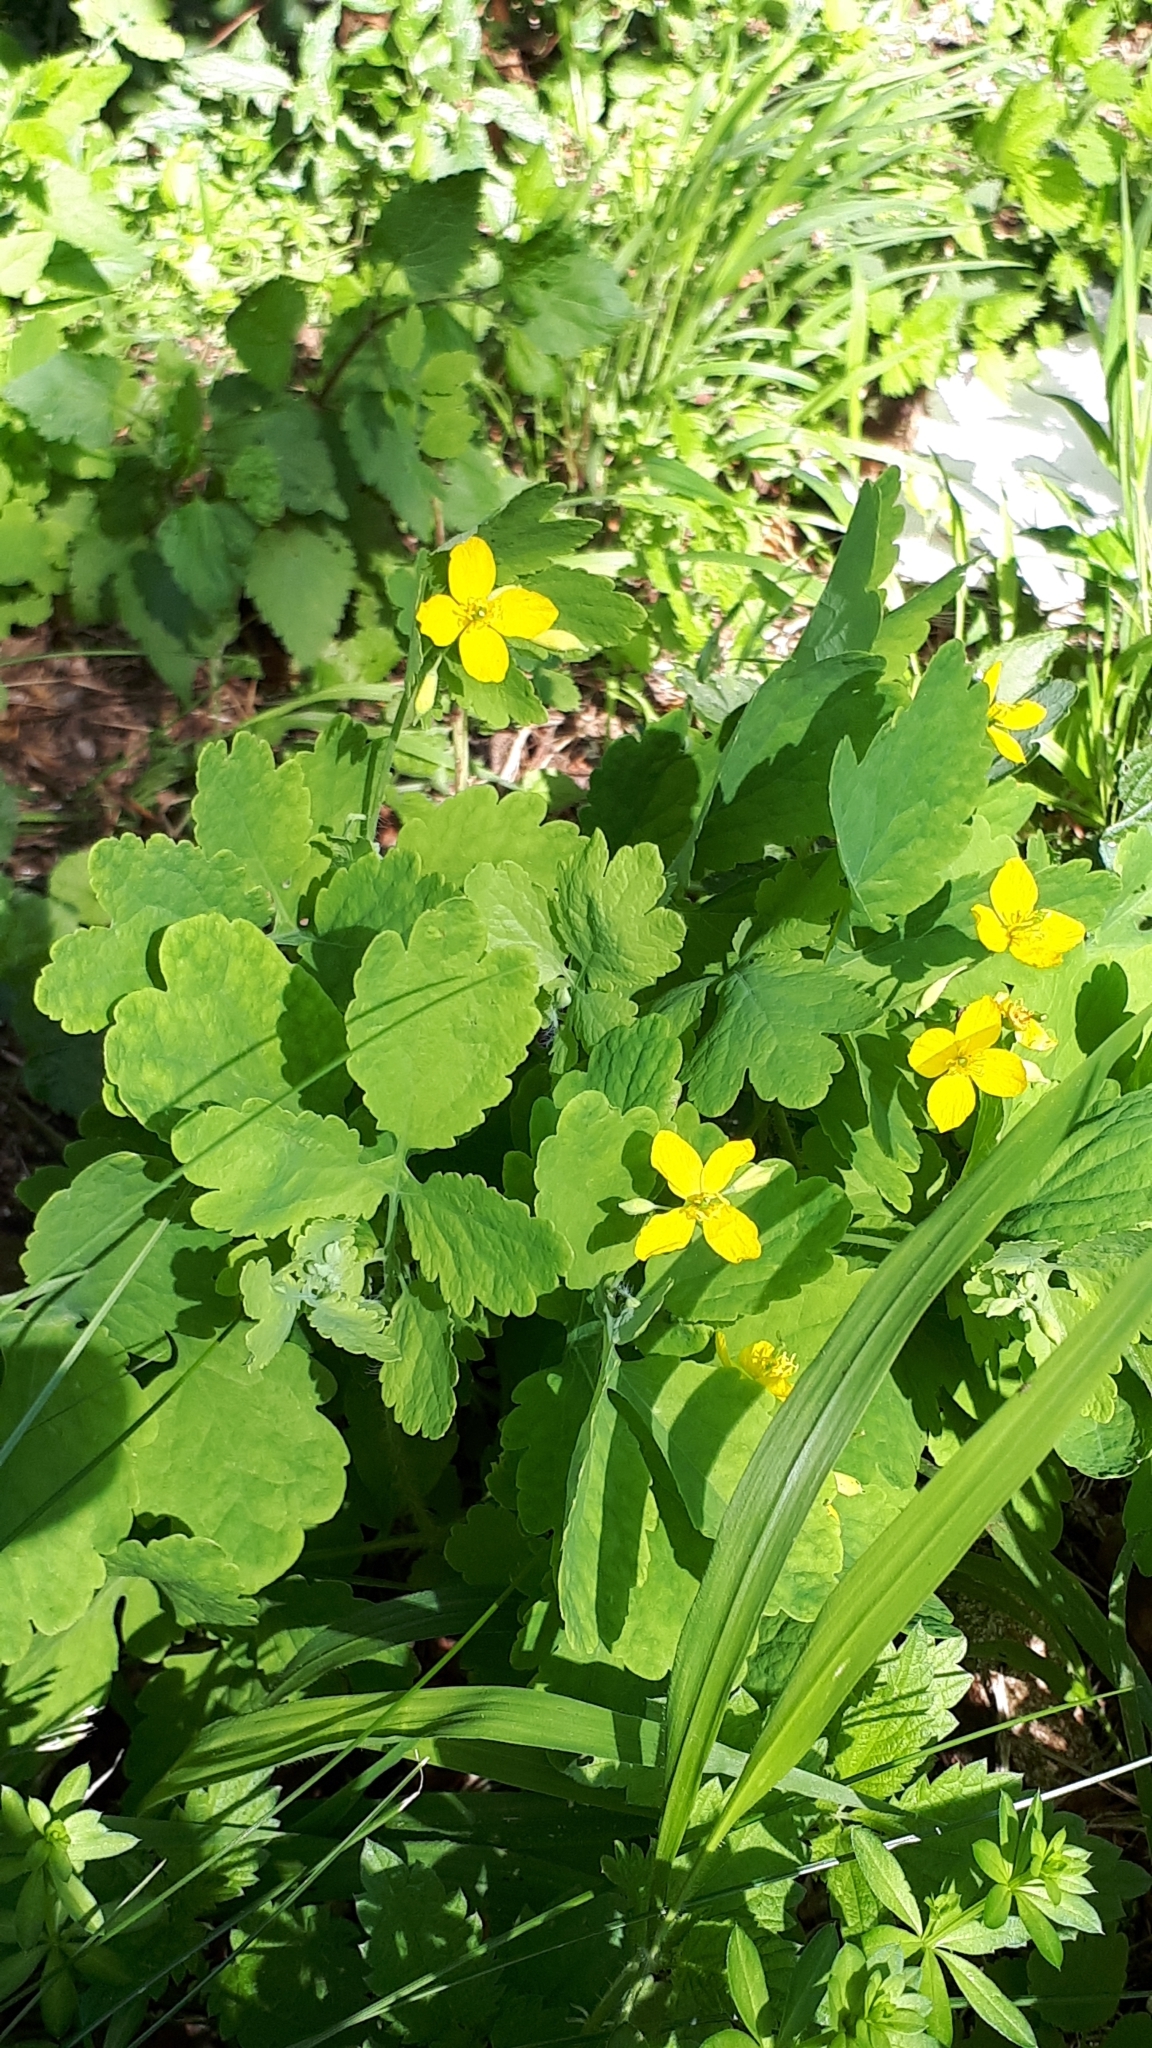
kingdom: Plantae
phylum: Tracheophyta
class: Magnoliopsida
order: Ranunculales
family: Papaveraceae
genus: Chelidonium
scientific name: Chelidonium majus
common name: Greater celandine
